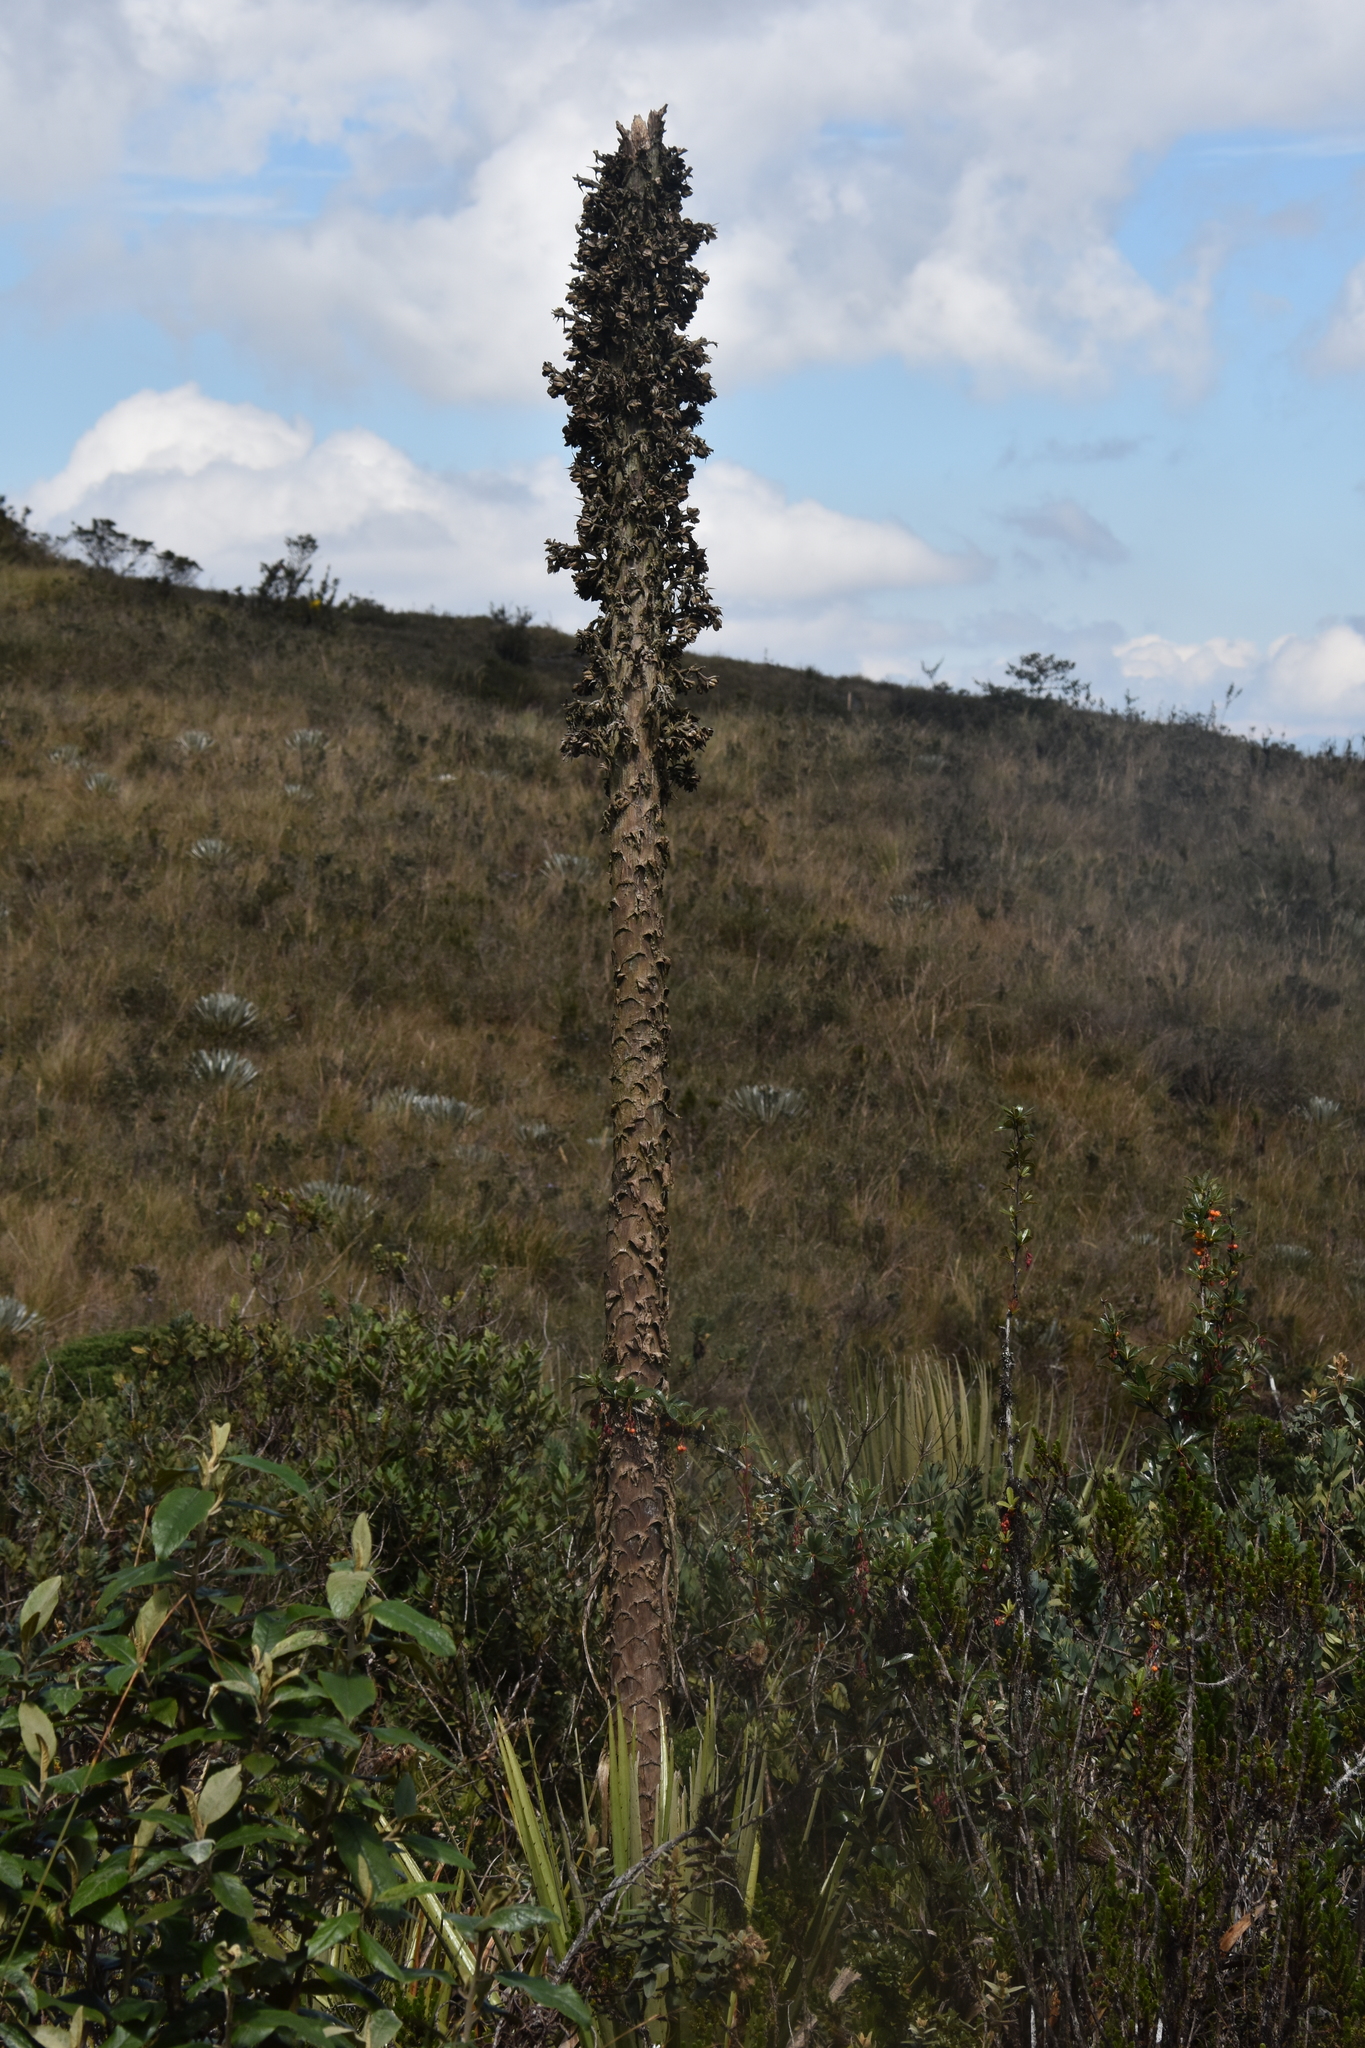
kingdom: Plantae
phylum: Tracheophyta
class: Liliopsida
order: Poales
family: Bromeliaceae
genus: Puya
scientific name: Puya goudotiana
